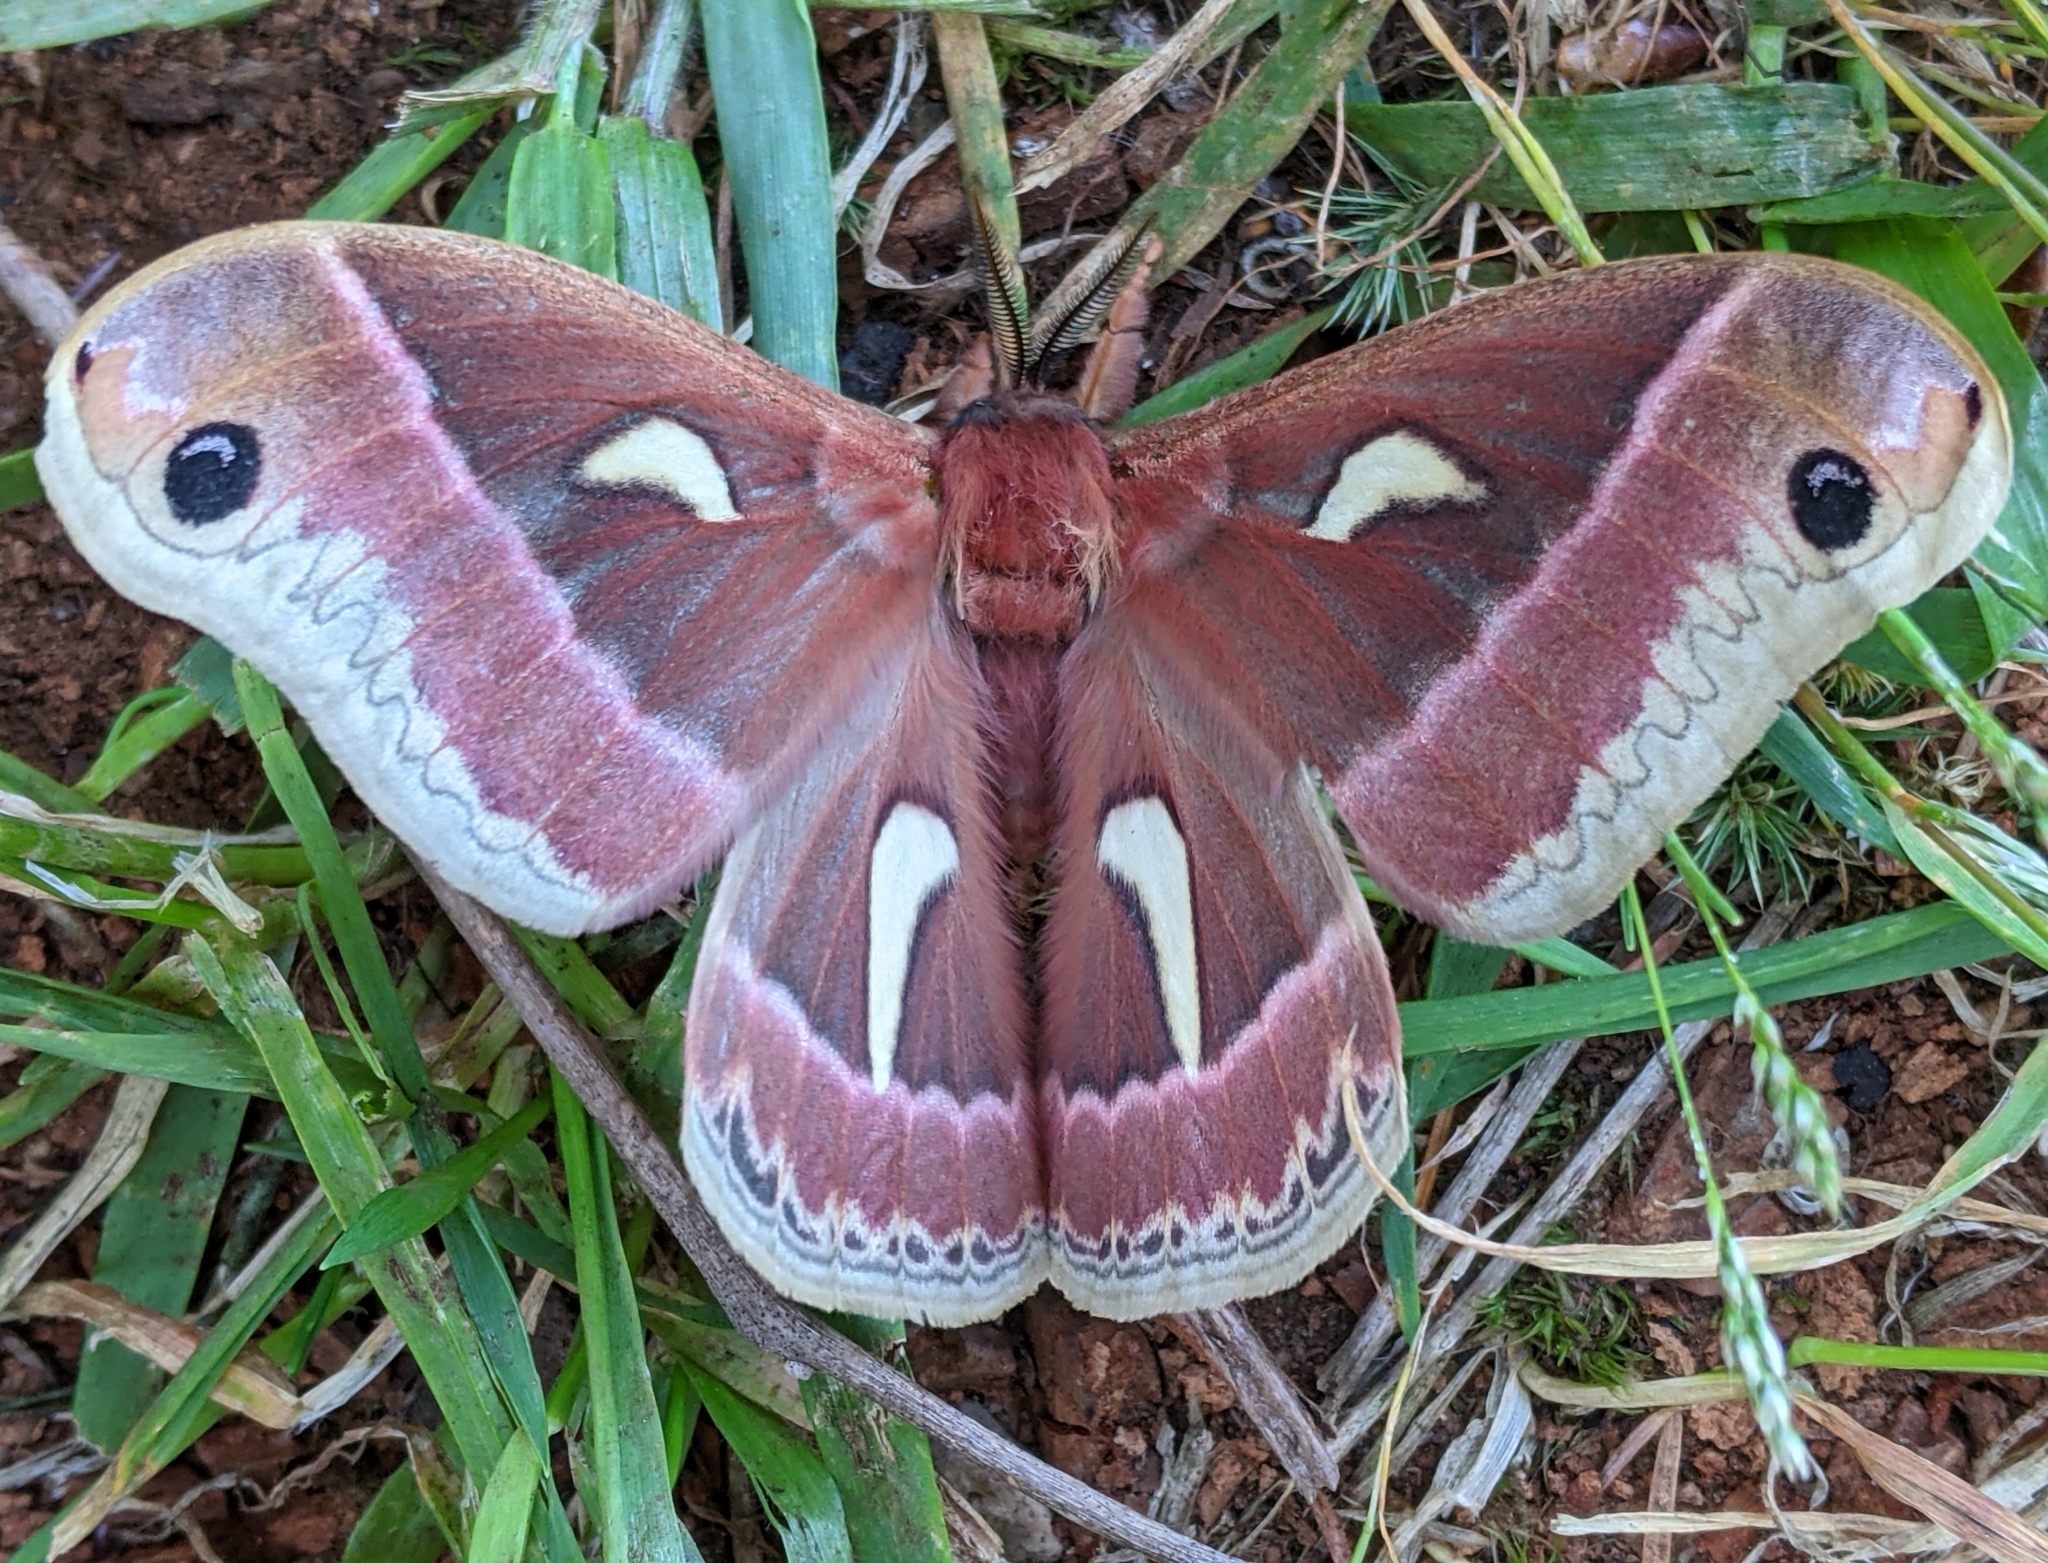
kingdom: Animalia
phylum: Arthropoda
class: Insecta
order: Lepidoptera
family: Saturniidae
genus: Hyalophora
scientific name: Hyalophora euryalus
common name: Ceanothus silkmoth
